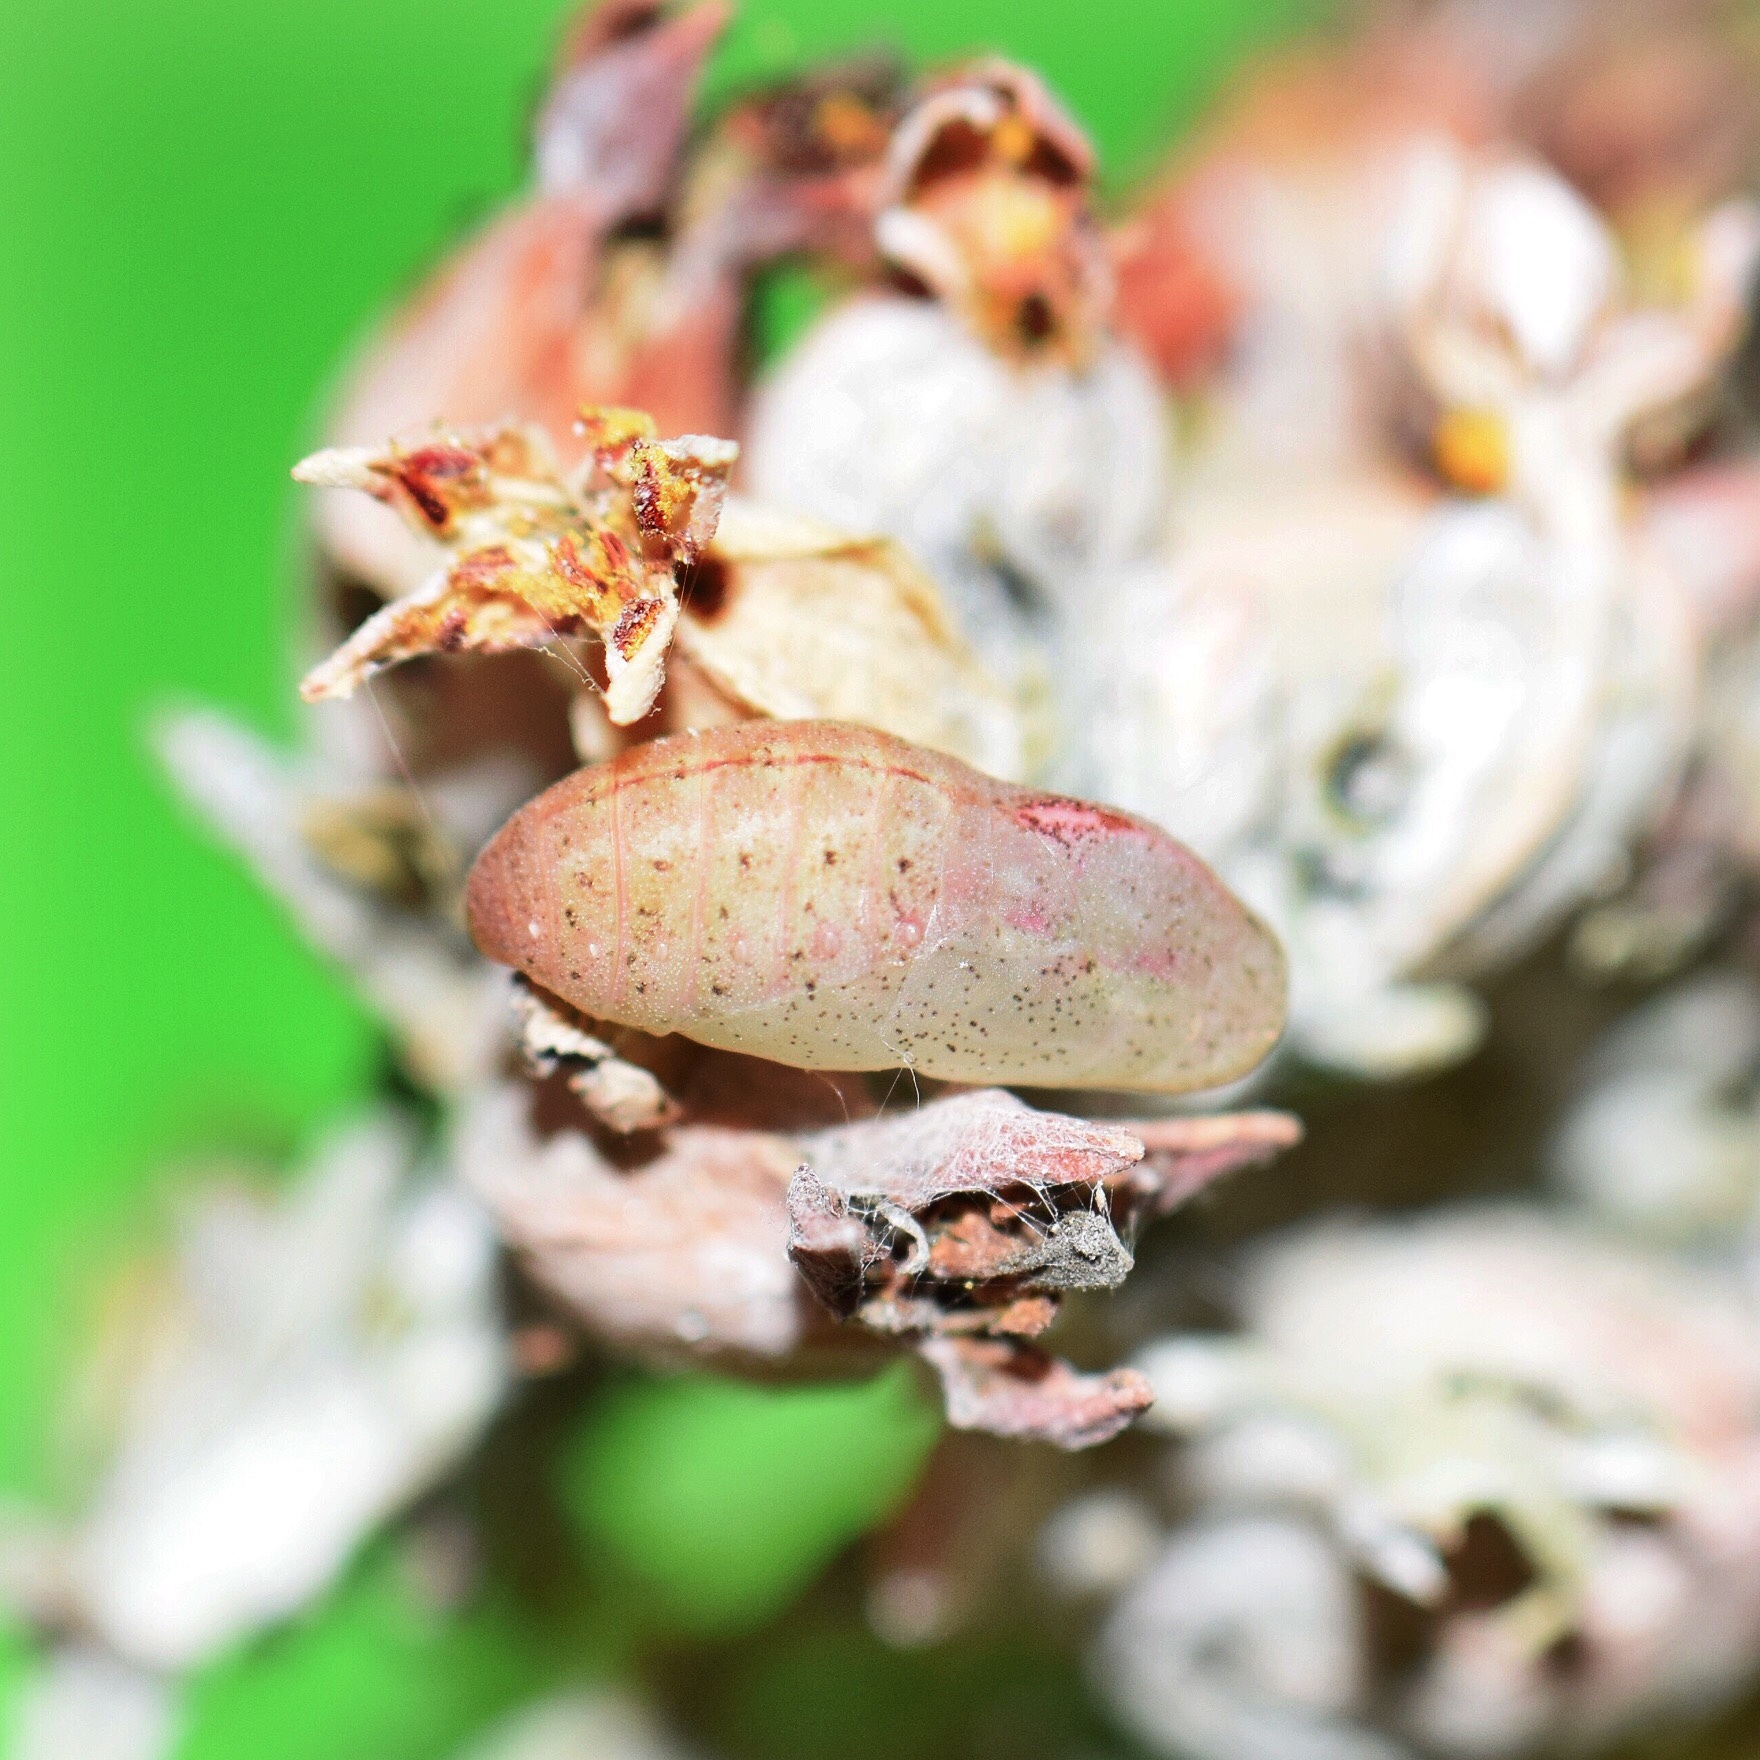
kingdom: Animalia
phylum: Arthropoda
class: Insecta
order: Lepidoptera
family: Lycaenidae
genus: Anthene
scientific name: Anthene livida
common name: Pale hairtail
